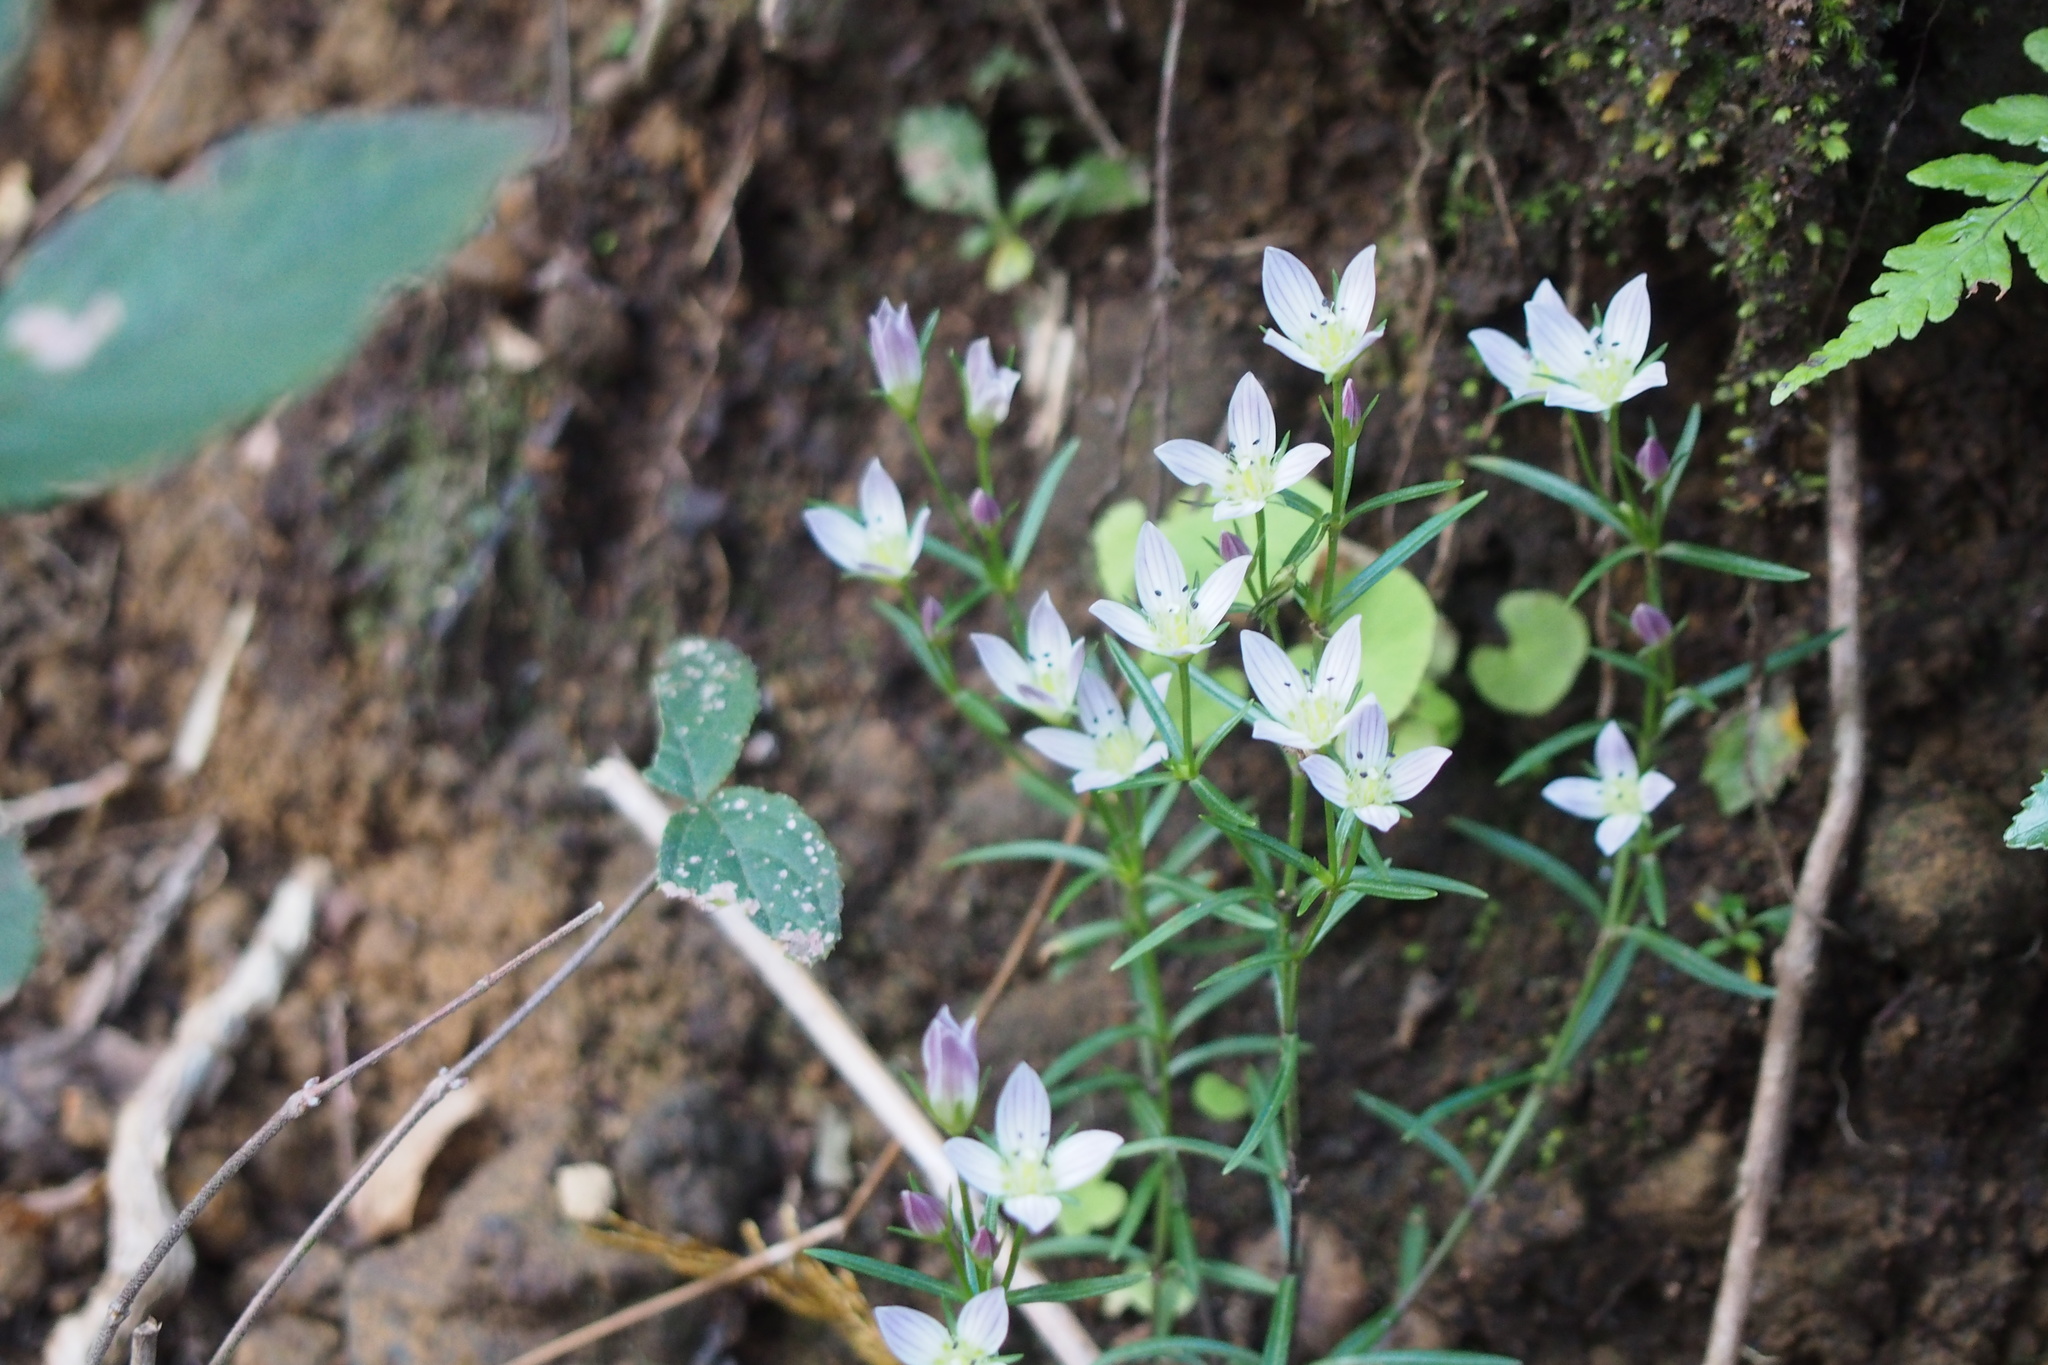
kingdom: Plantae
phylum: Tracheophyta
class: Magnoliopsida
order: Gentianales
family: Gentianaceae
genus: Swertia
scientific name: Swertia japonica
